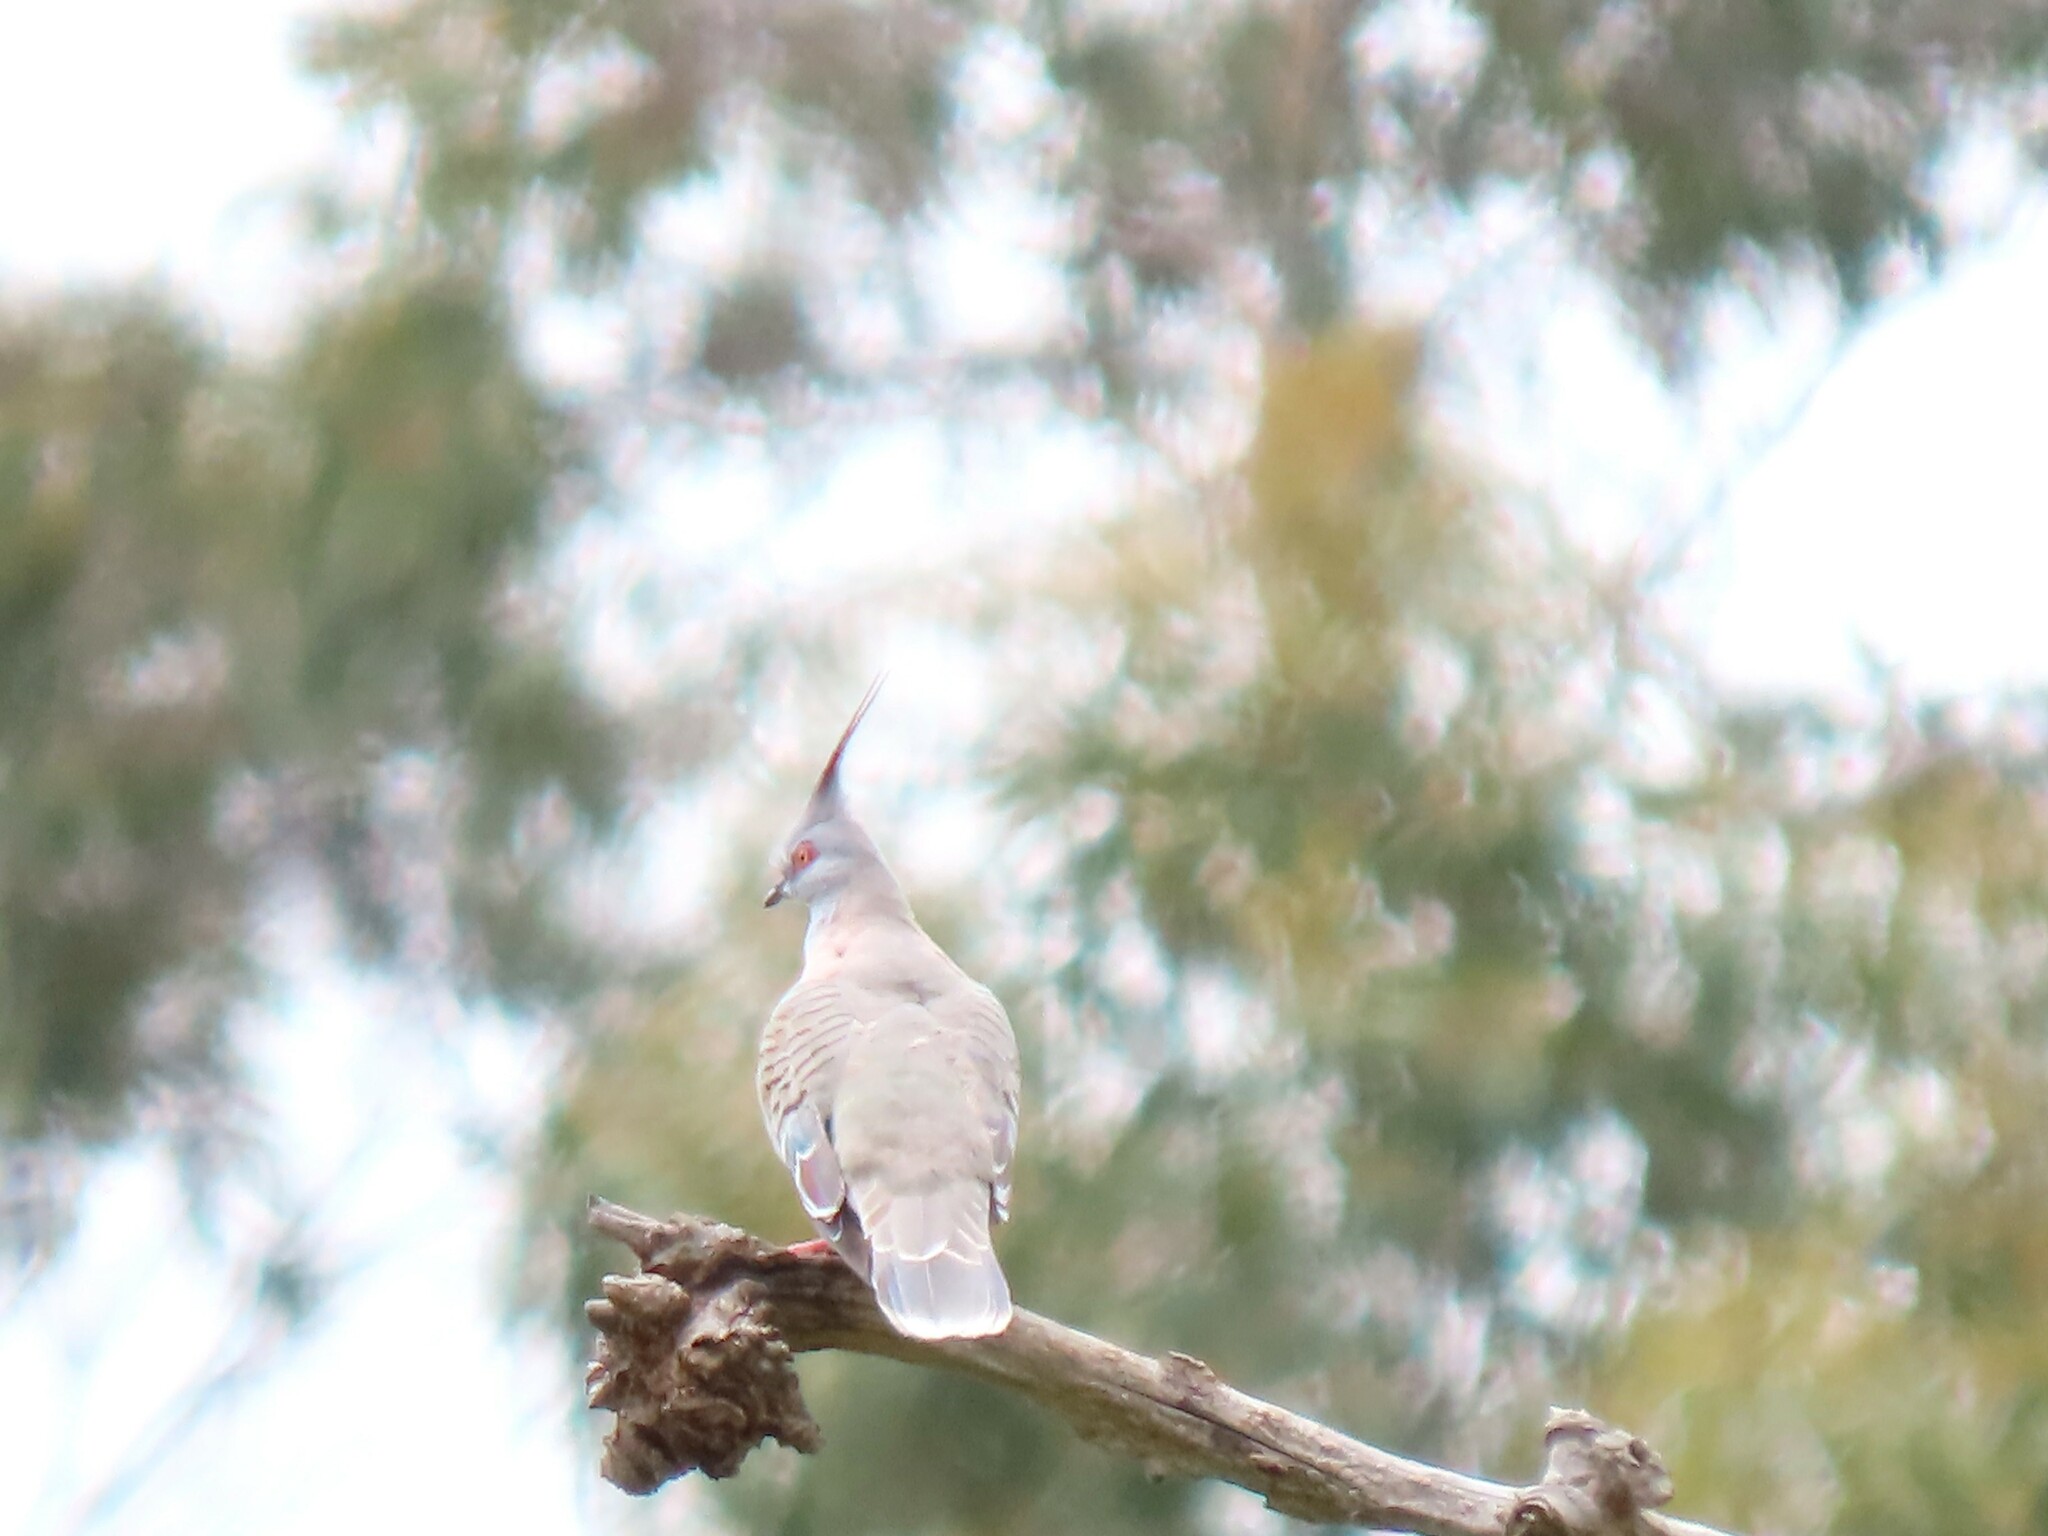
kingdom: Animalia
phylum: Chordata
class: Aves
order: Columbiformes
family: Columbidae
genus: Ocyphaps
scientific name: Ocyphaps lophotes
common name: Crested pigeon
